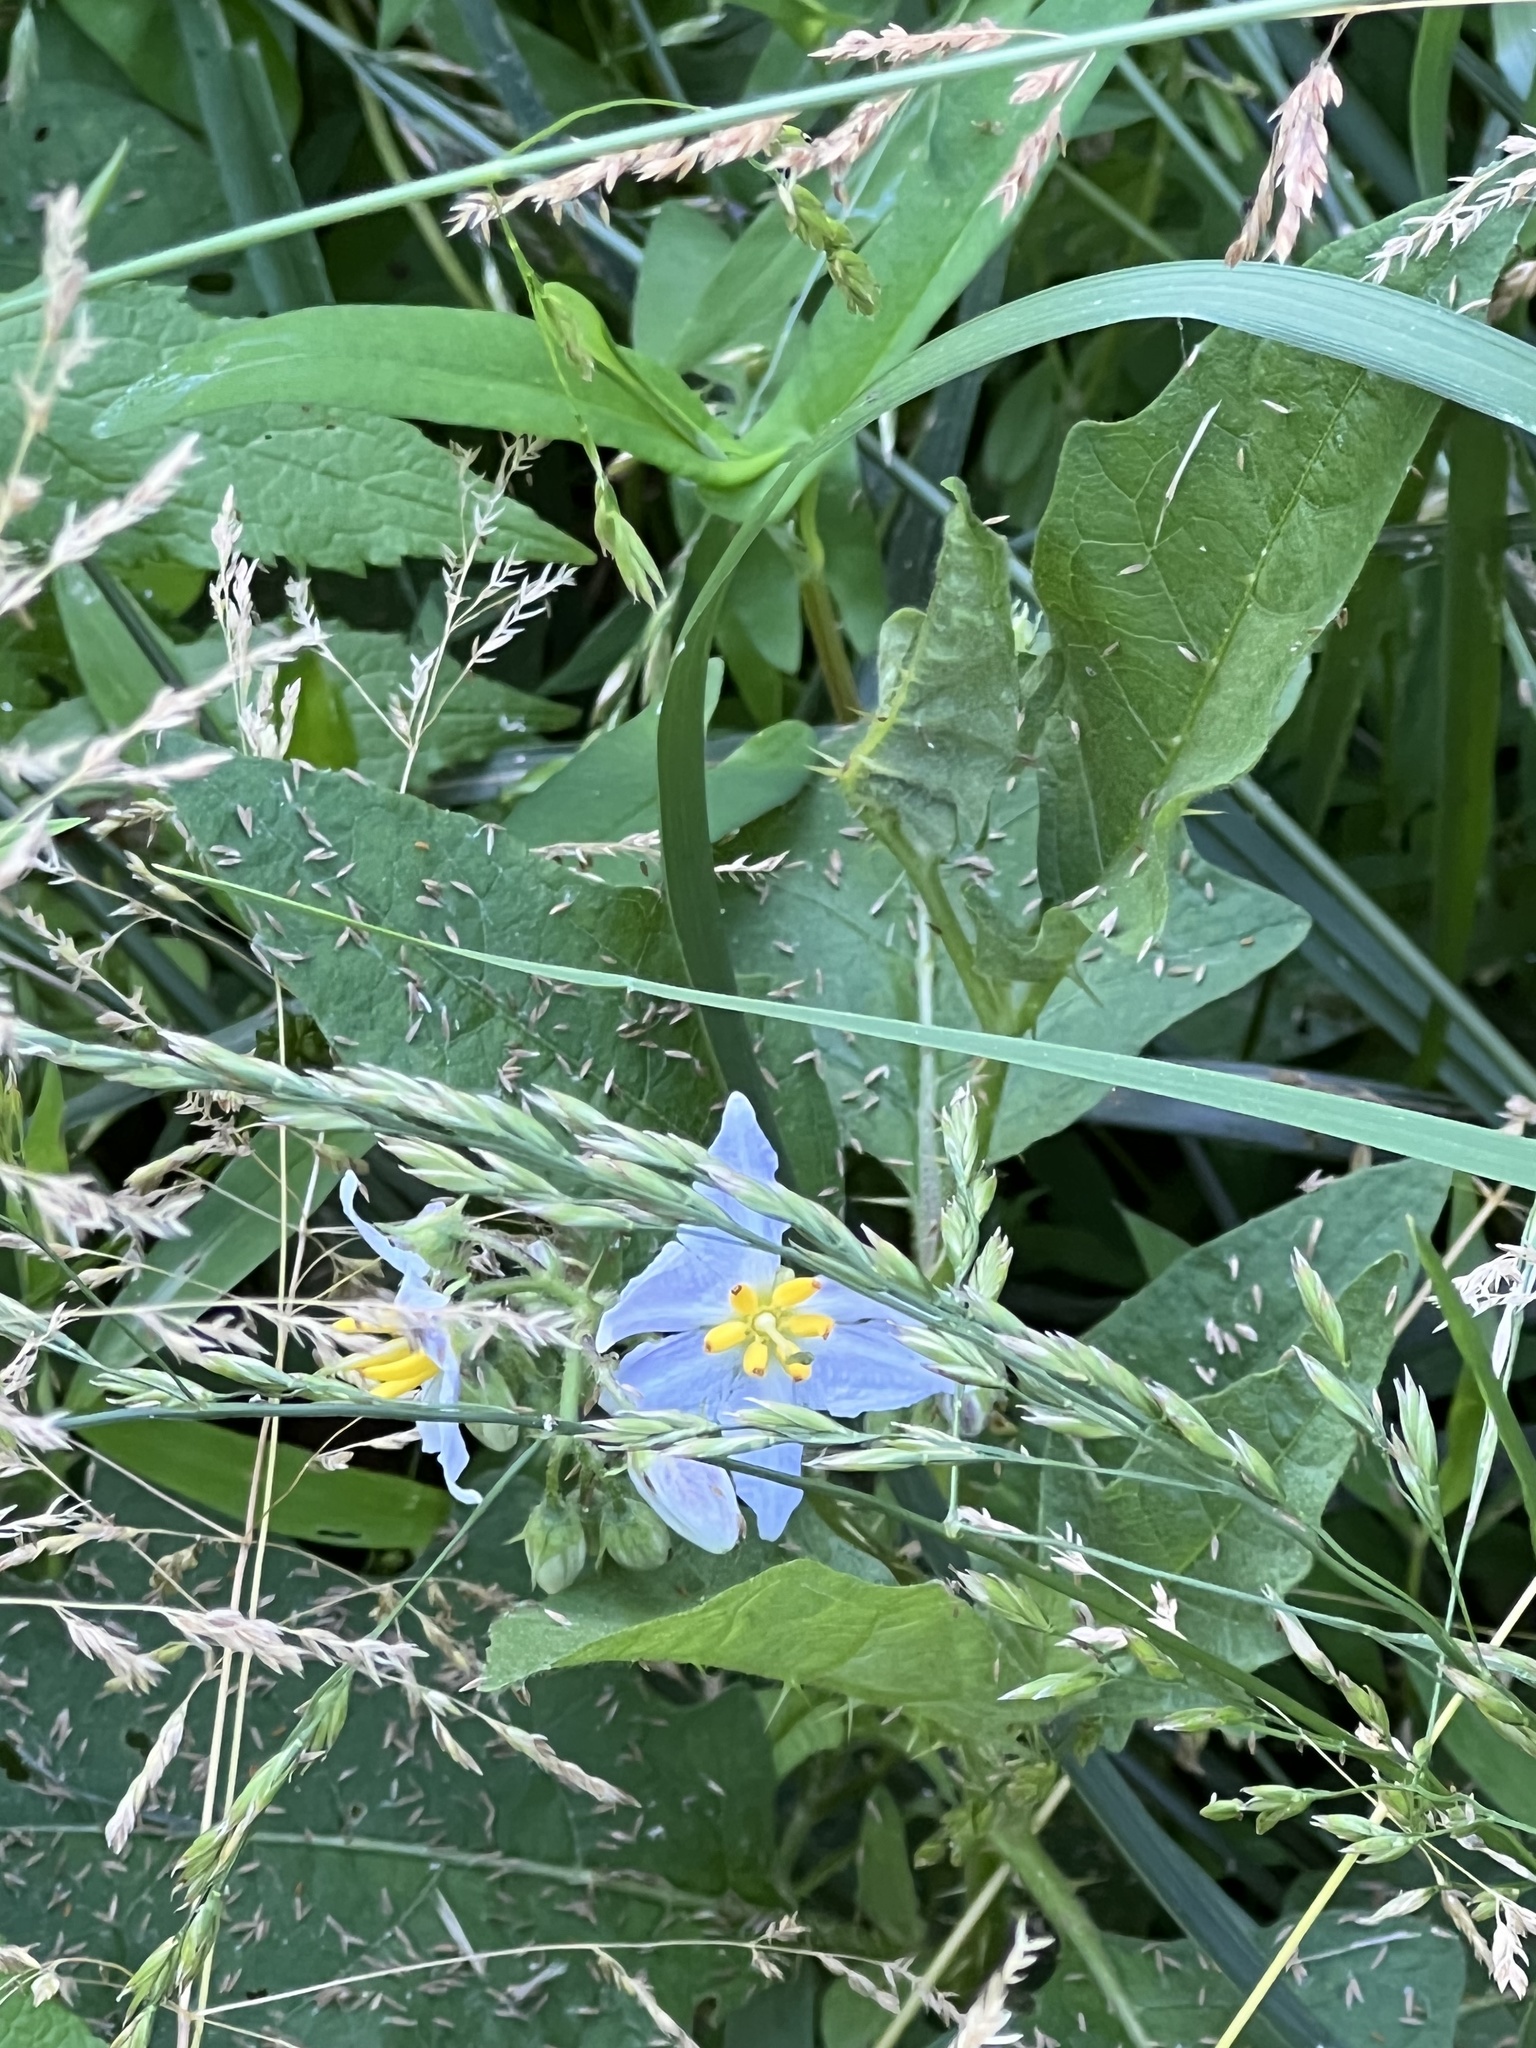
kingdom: Plantae
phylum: Tracheophyta
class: Magnoliopsida
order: Solanales
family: Solanaceae
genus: Solanum
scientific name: Solanum carolinense
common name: Horse-nettle
